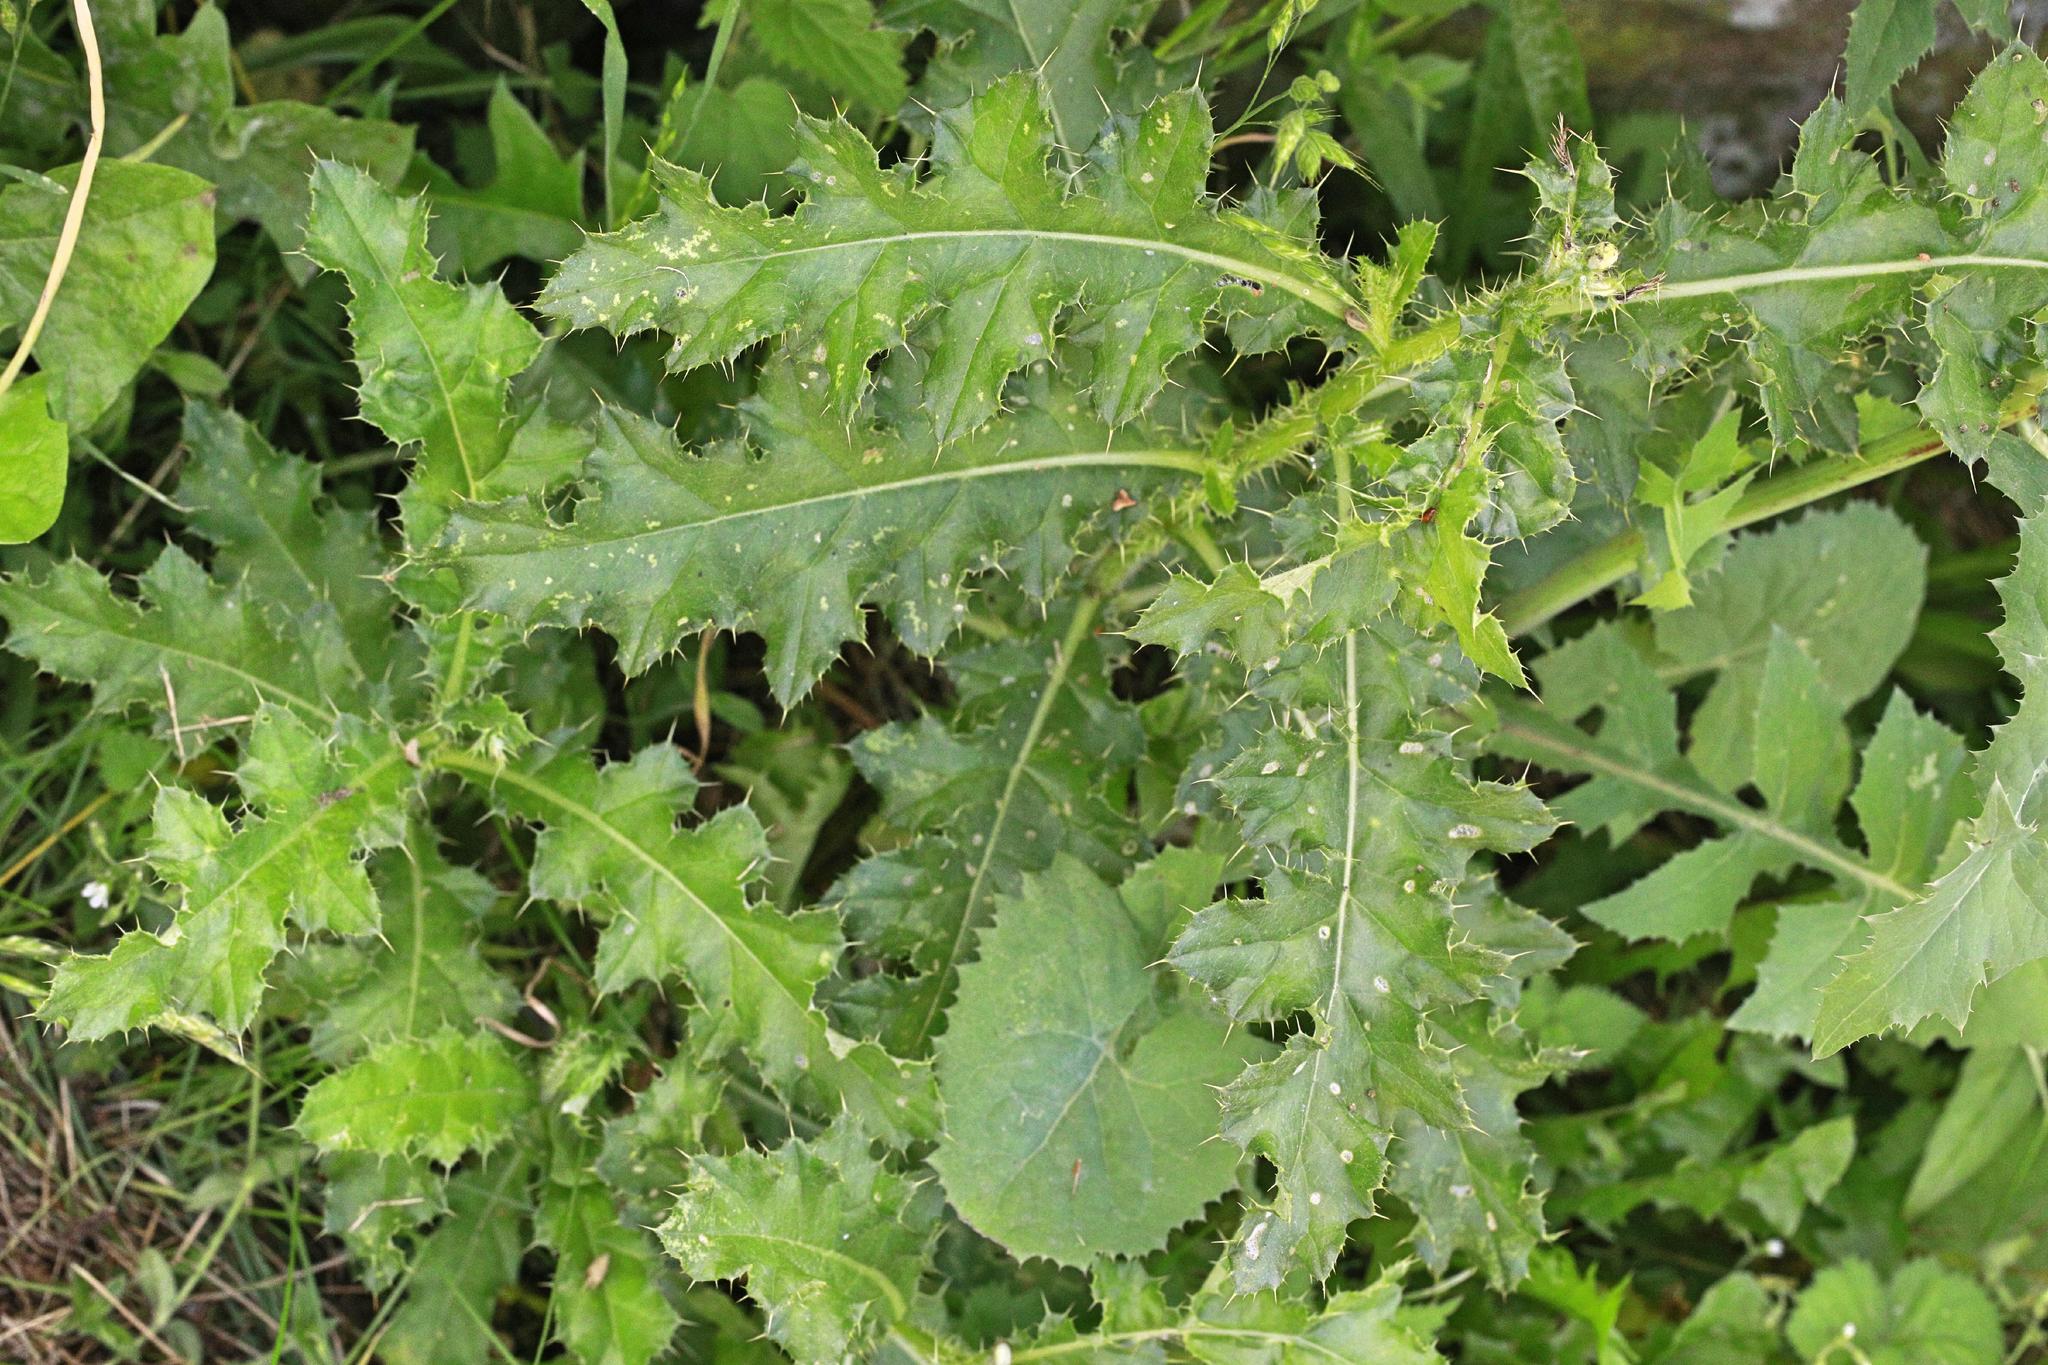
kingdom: Plantae
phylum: Tracheophyta
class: Magnoliopsida
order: Asterales
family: Asteraceae
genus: Cirsium
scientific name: Cirsium arvense
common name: Creeping thistle
